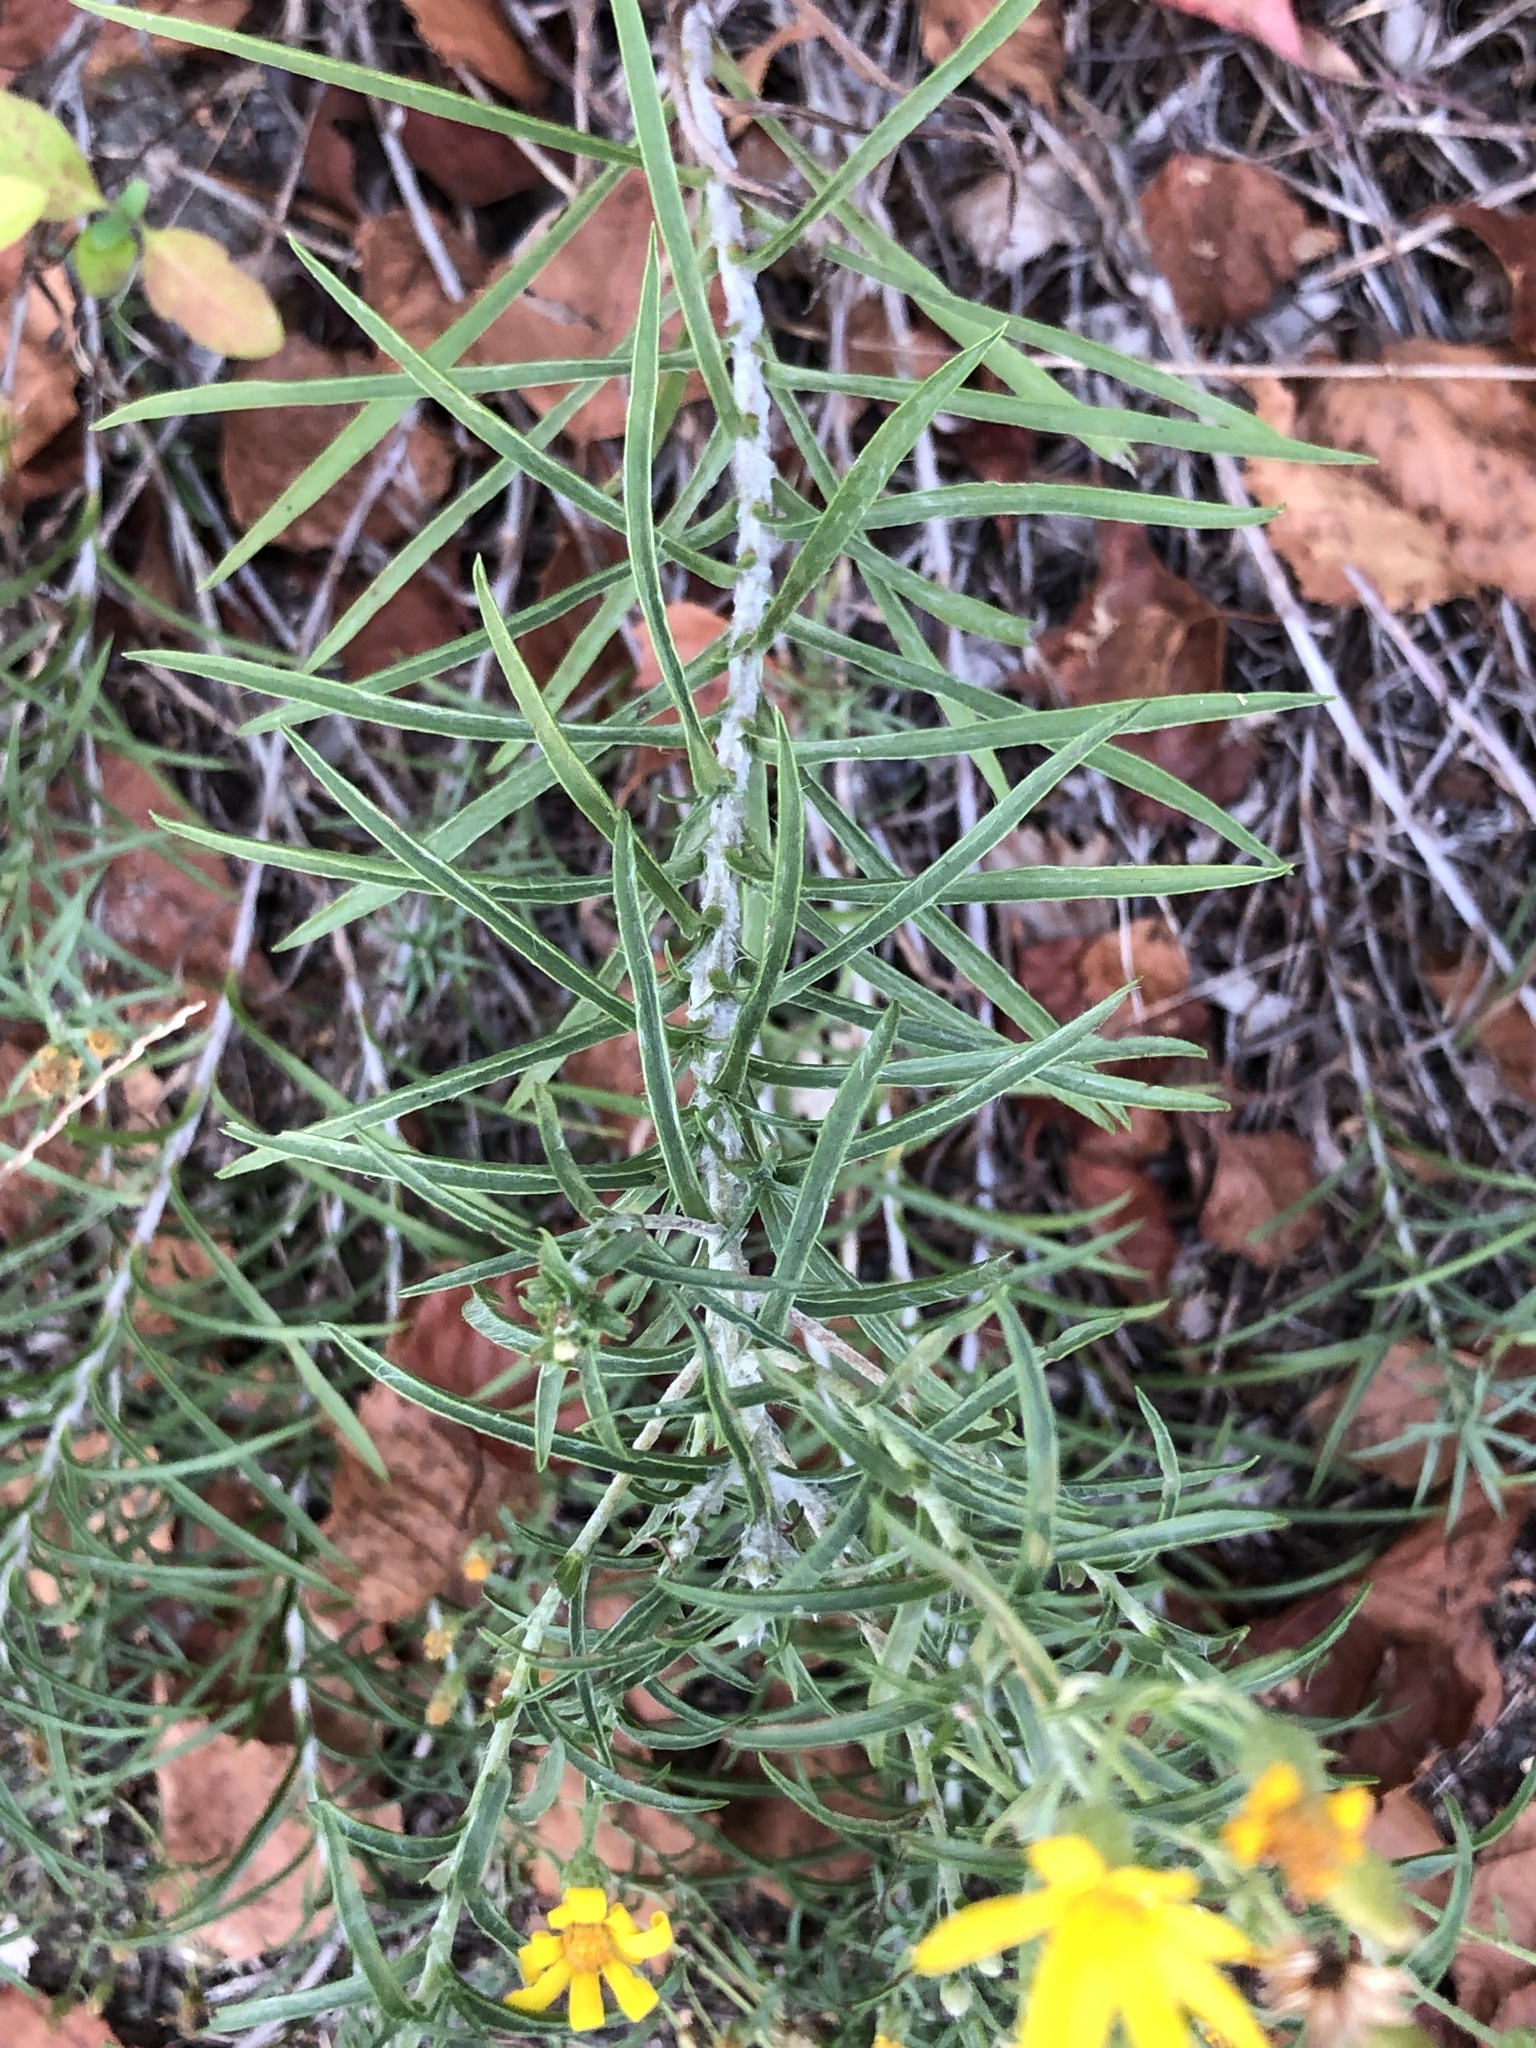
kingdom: Plantae
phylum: Tracheophyta
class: Magnoliopsida
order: Asterales
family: Asteraceae
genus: Pityopsis
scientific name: Pityopsis falcata
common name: Sickle-leaved goldenaster
